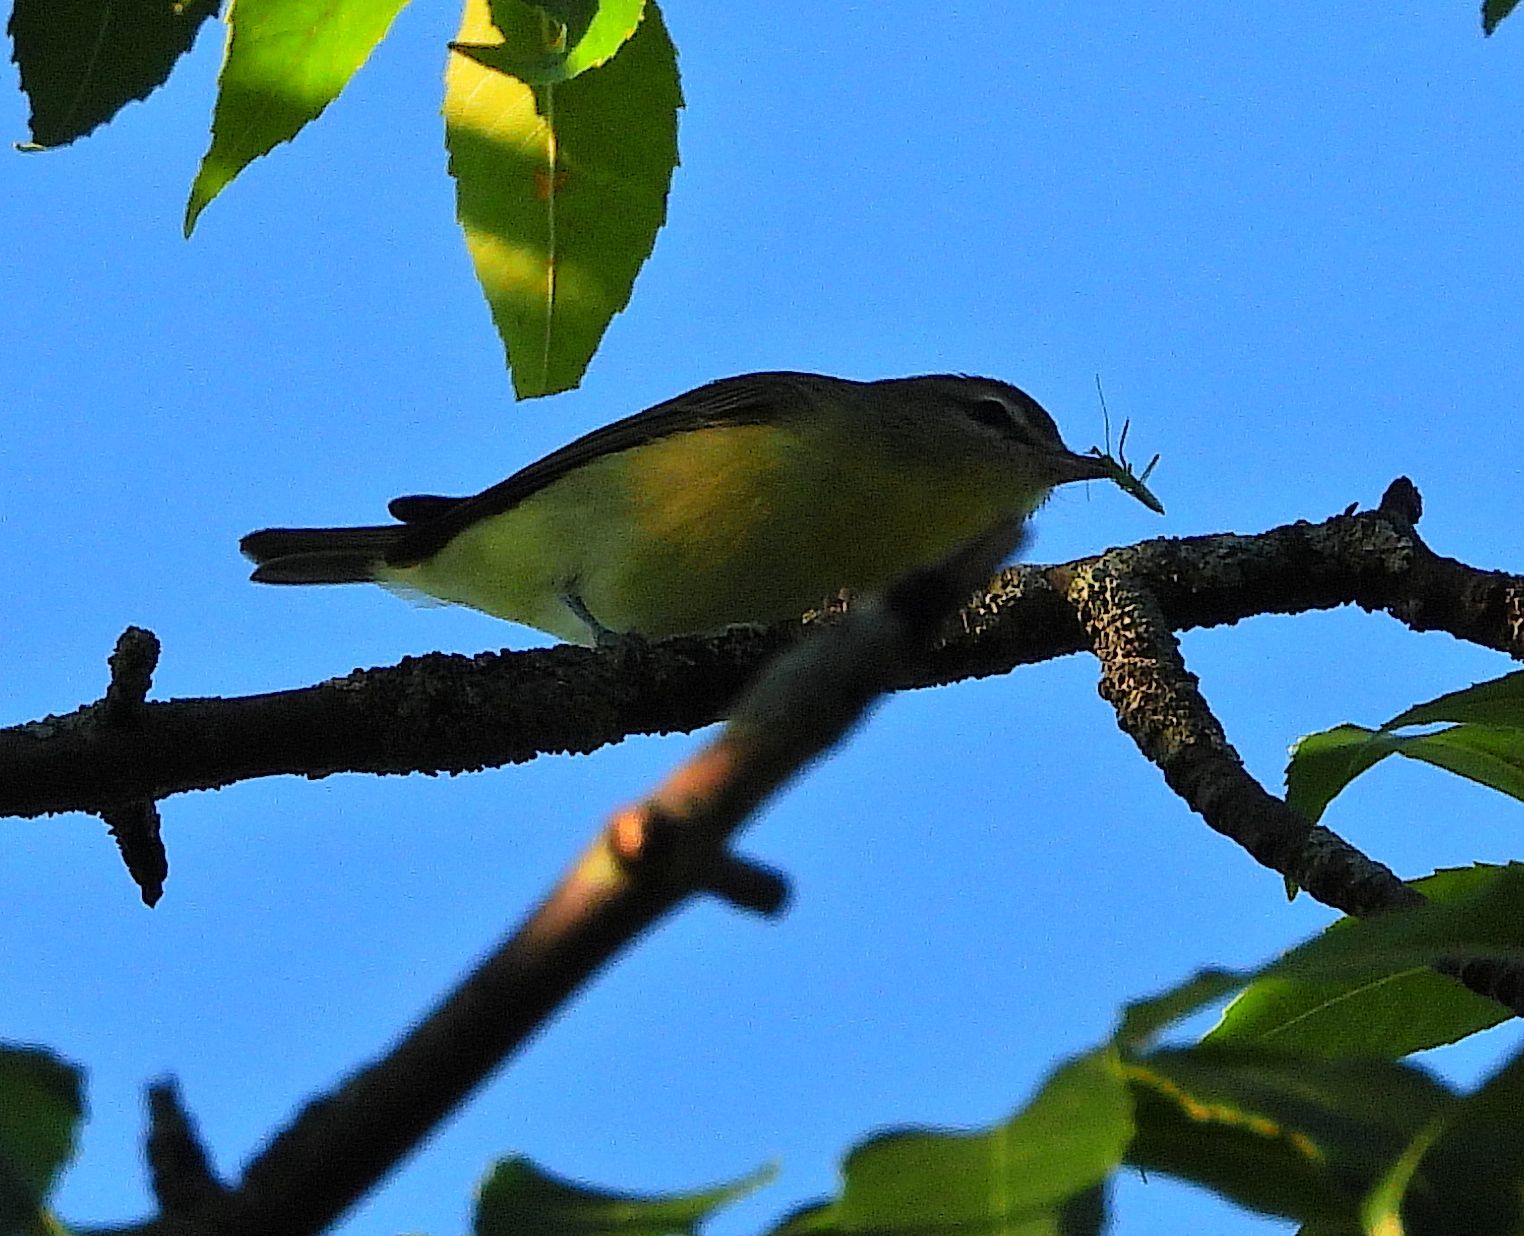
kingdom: Animalia
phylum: Chordata
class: Aves
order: Passeriformes
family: Vireonidae
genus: Vireo
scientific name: Vireo philadelphicus
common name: Philadelphia vireo
